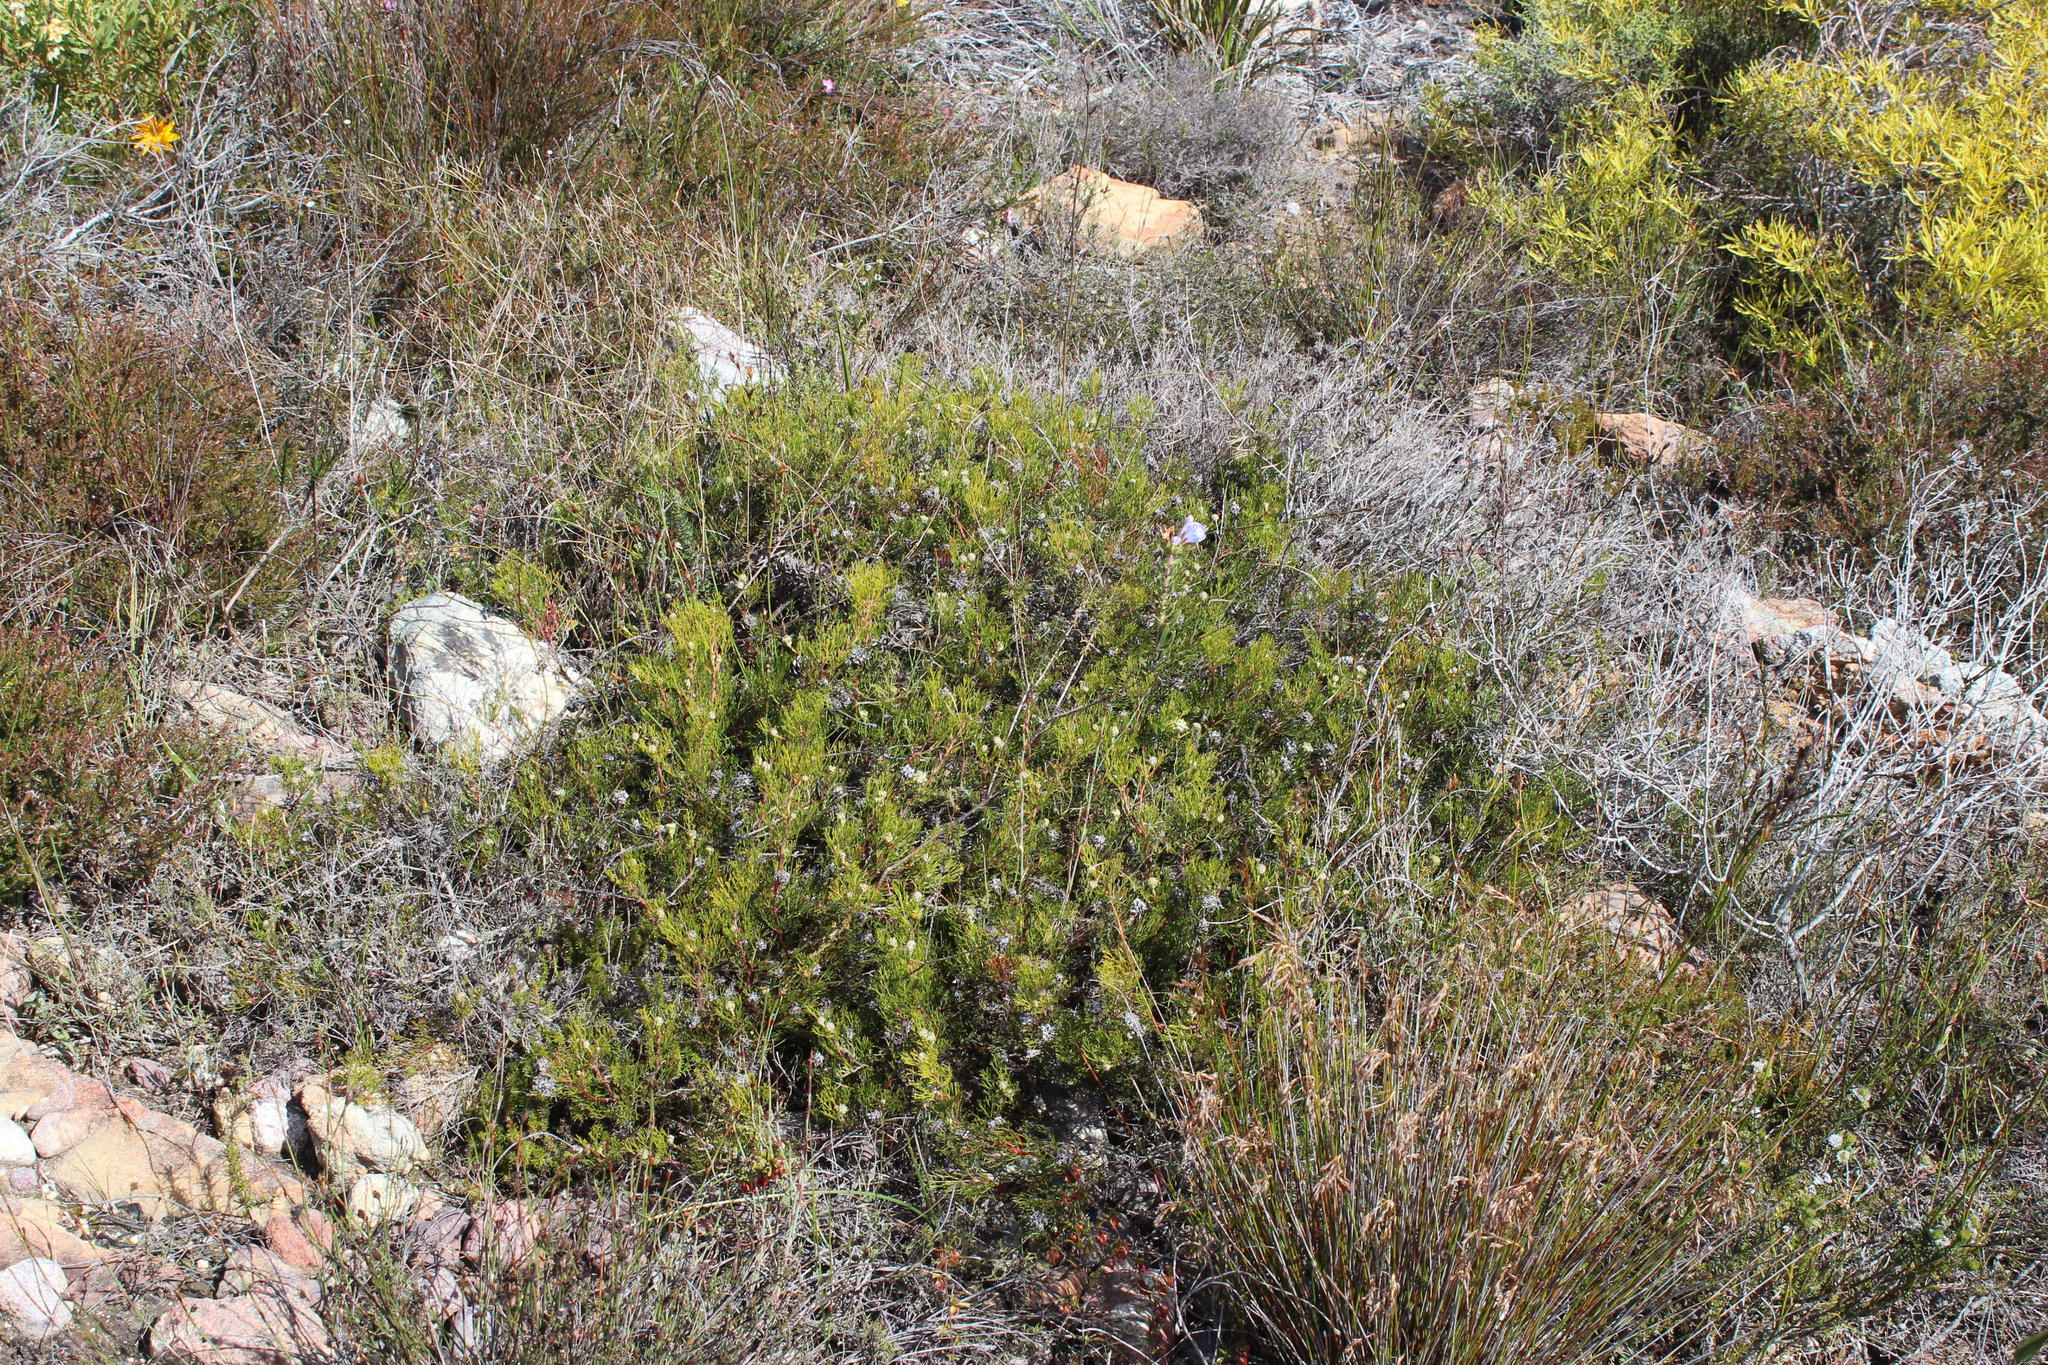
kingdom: Plantae
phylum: Tracheophyta
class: Magnoliopsida
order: Proteales
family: Proteaceae
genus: Serruria
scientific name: Serruria
